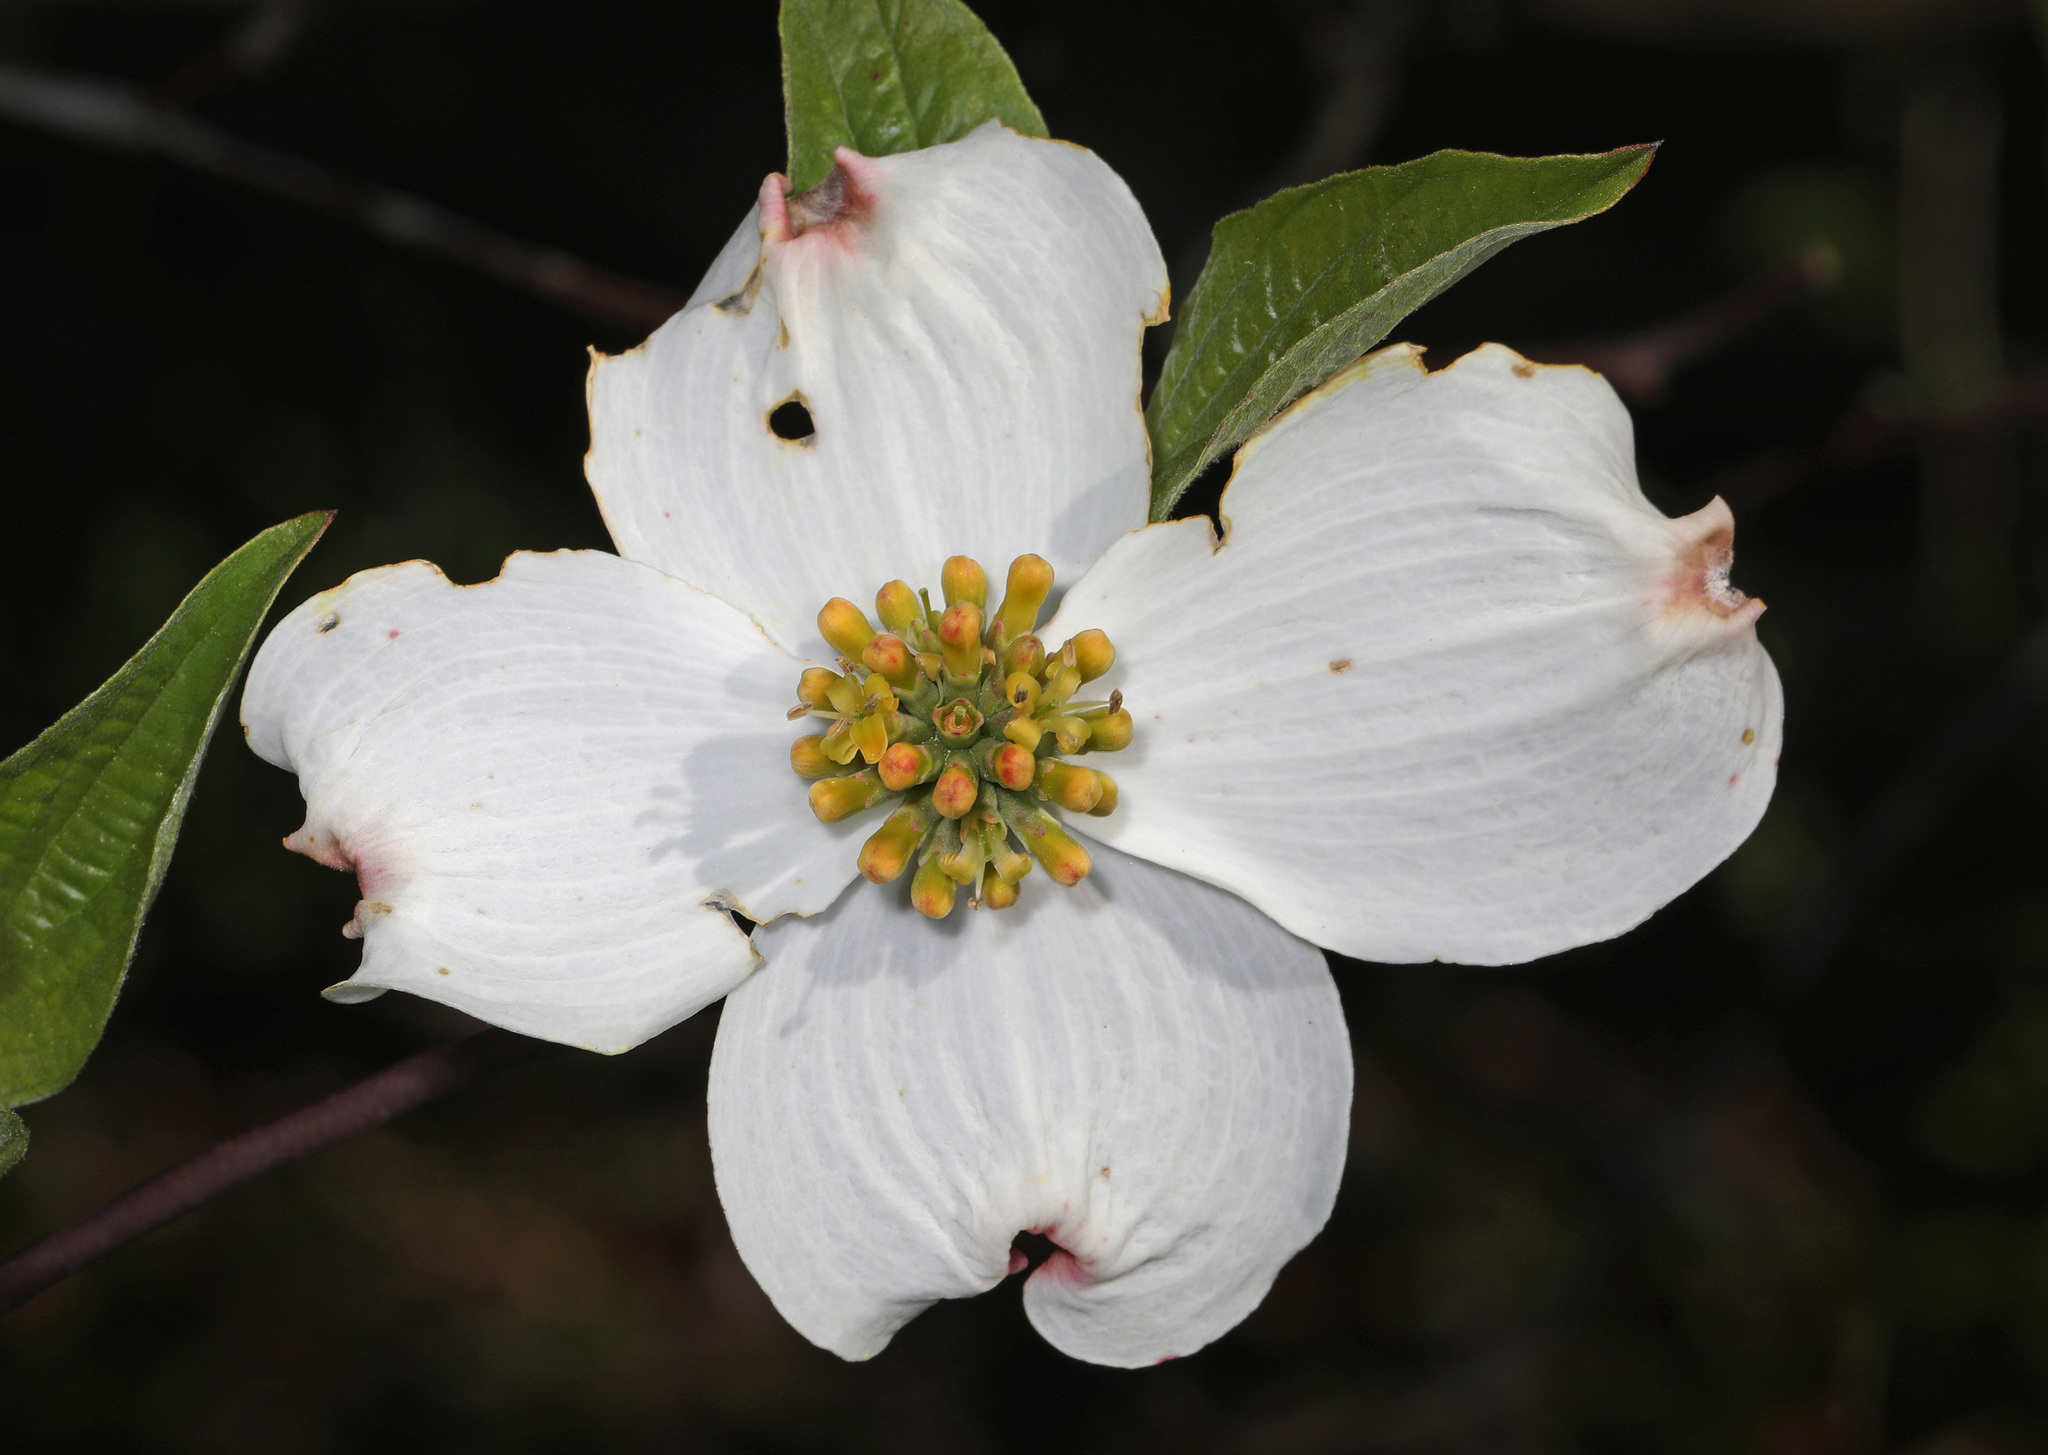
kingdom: Plantae
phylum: Tracheophyta
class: Magnoliopsida
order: Cornales
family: Cornaceae
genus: Cornus
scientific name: Cornus florida
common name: Flowering dogwood
